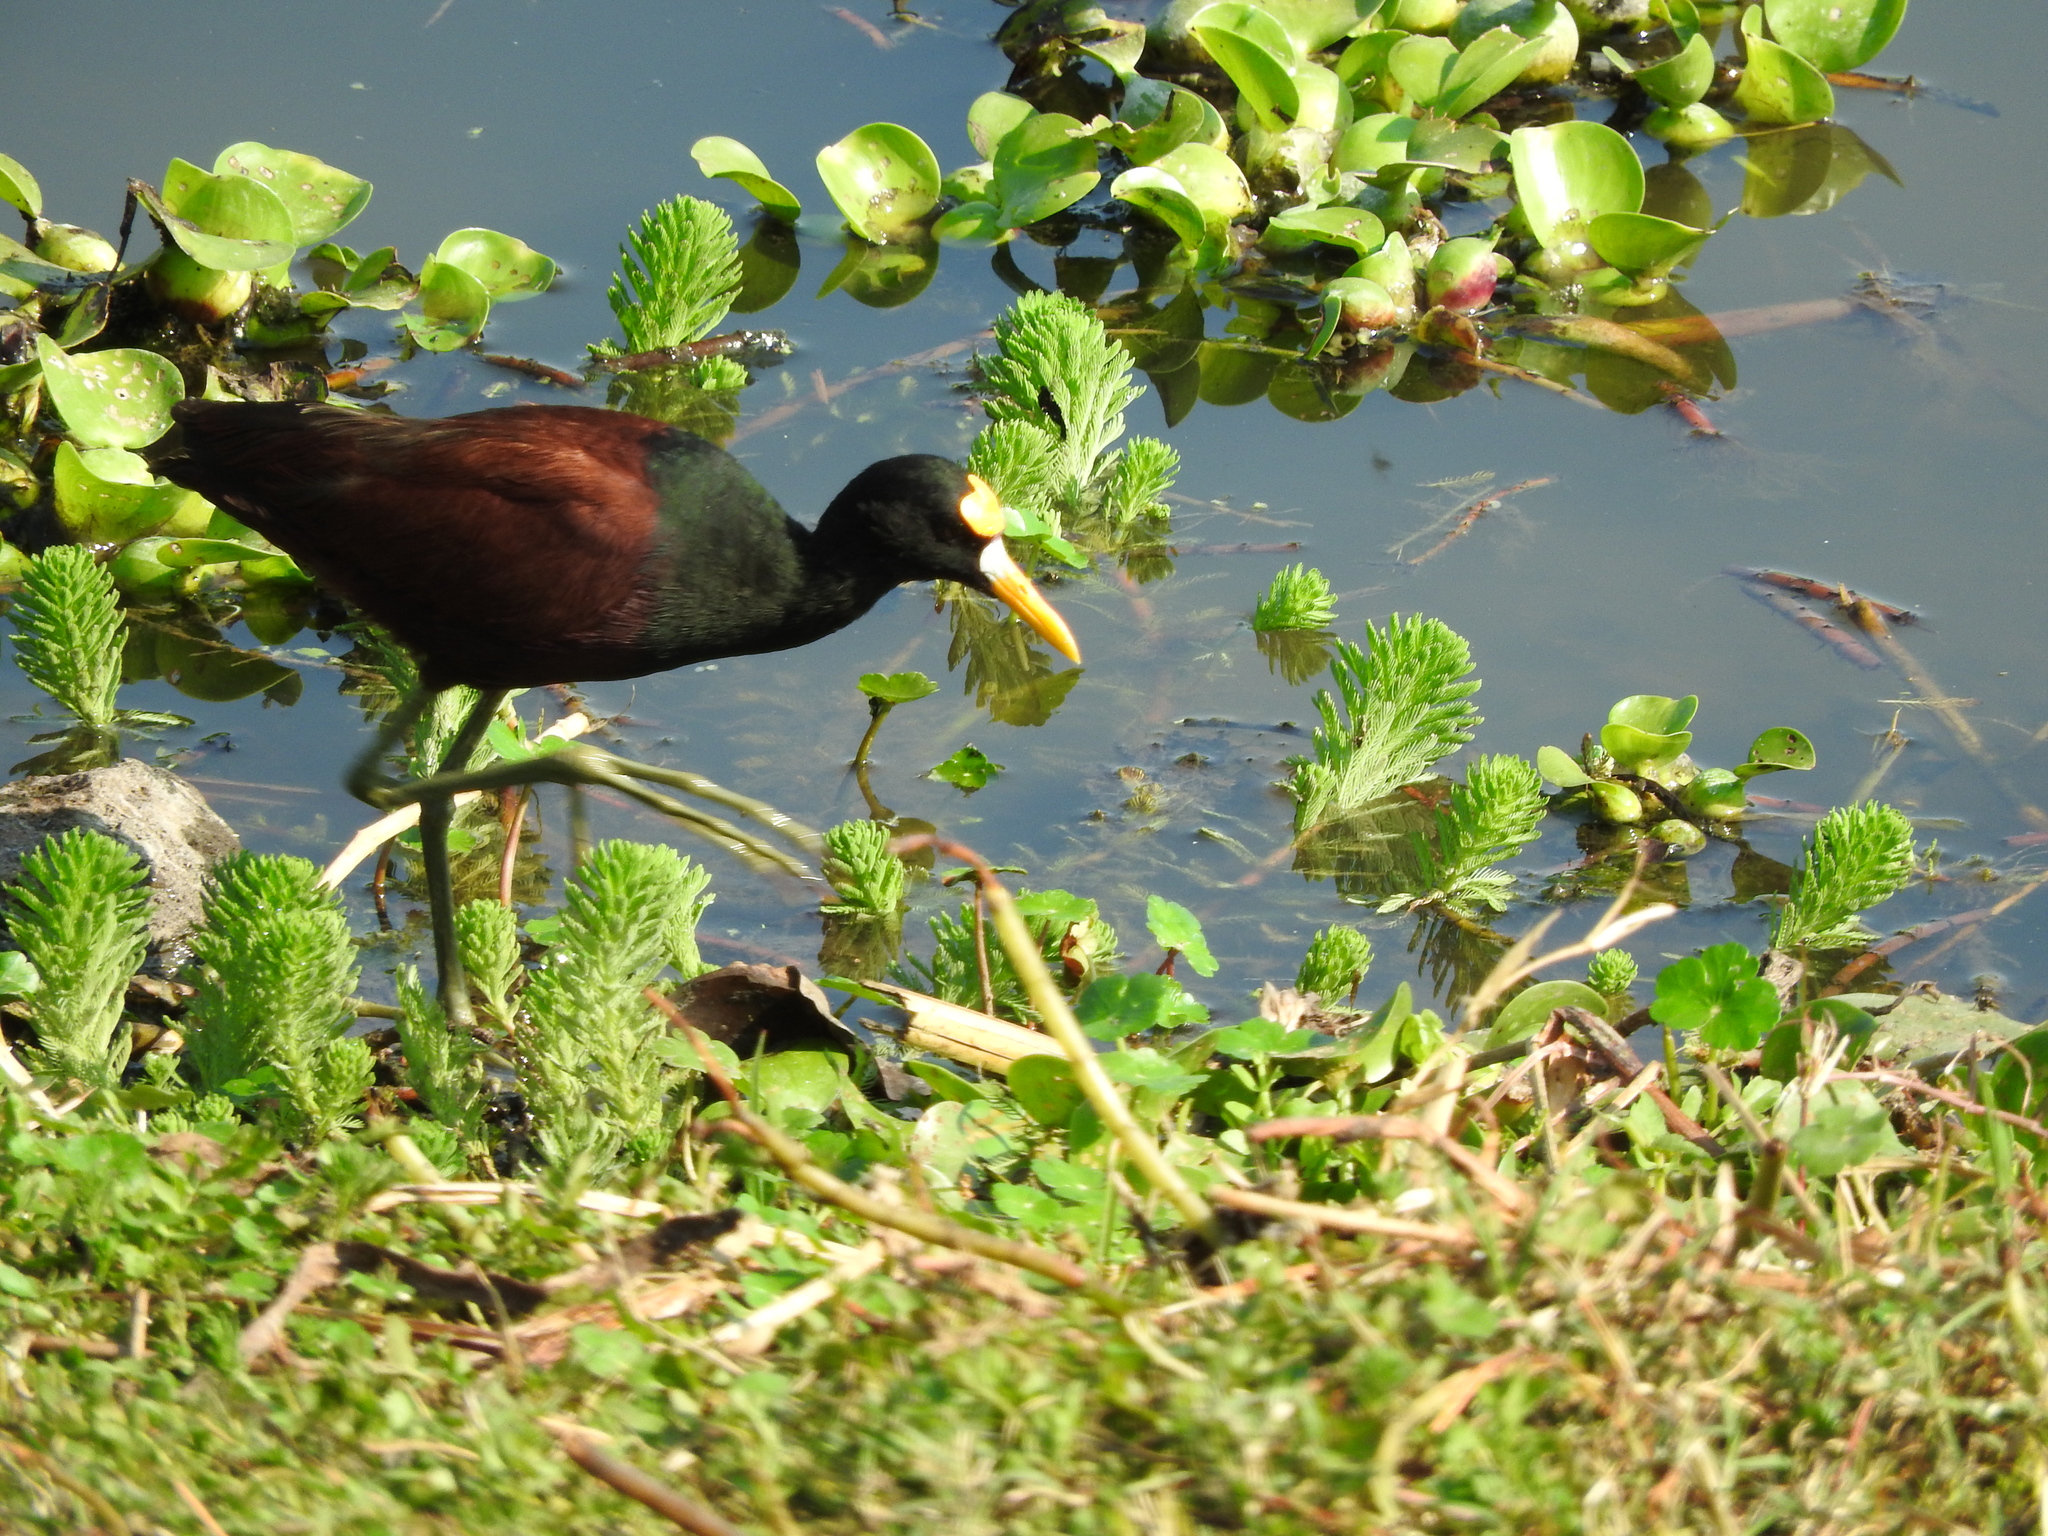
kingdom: Animalia
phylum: Chordata
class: Aves
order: Charadriiformes
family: Jacanidae
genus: Jacana
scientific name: Jacana spinosa
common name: Northern jacana
